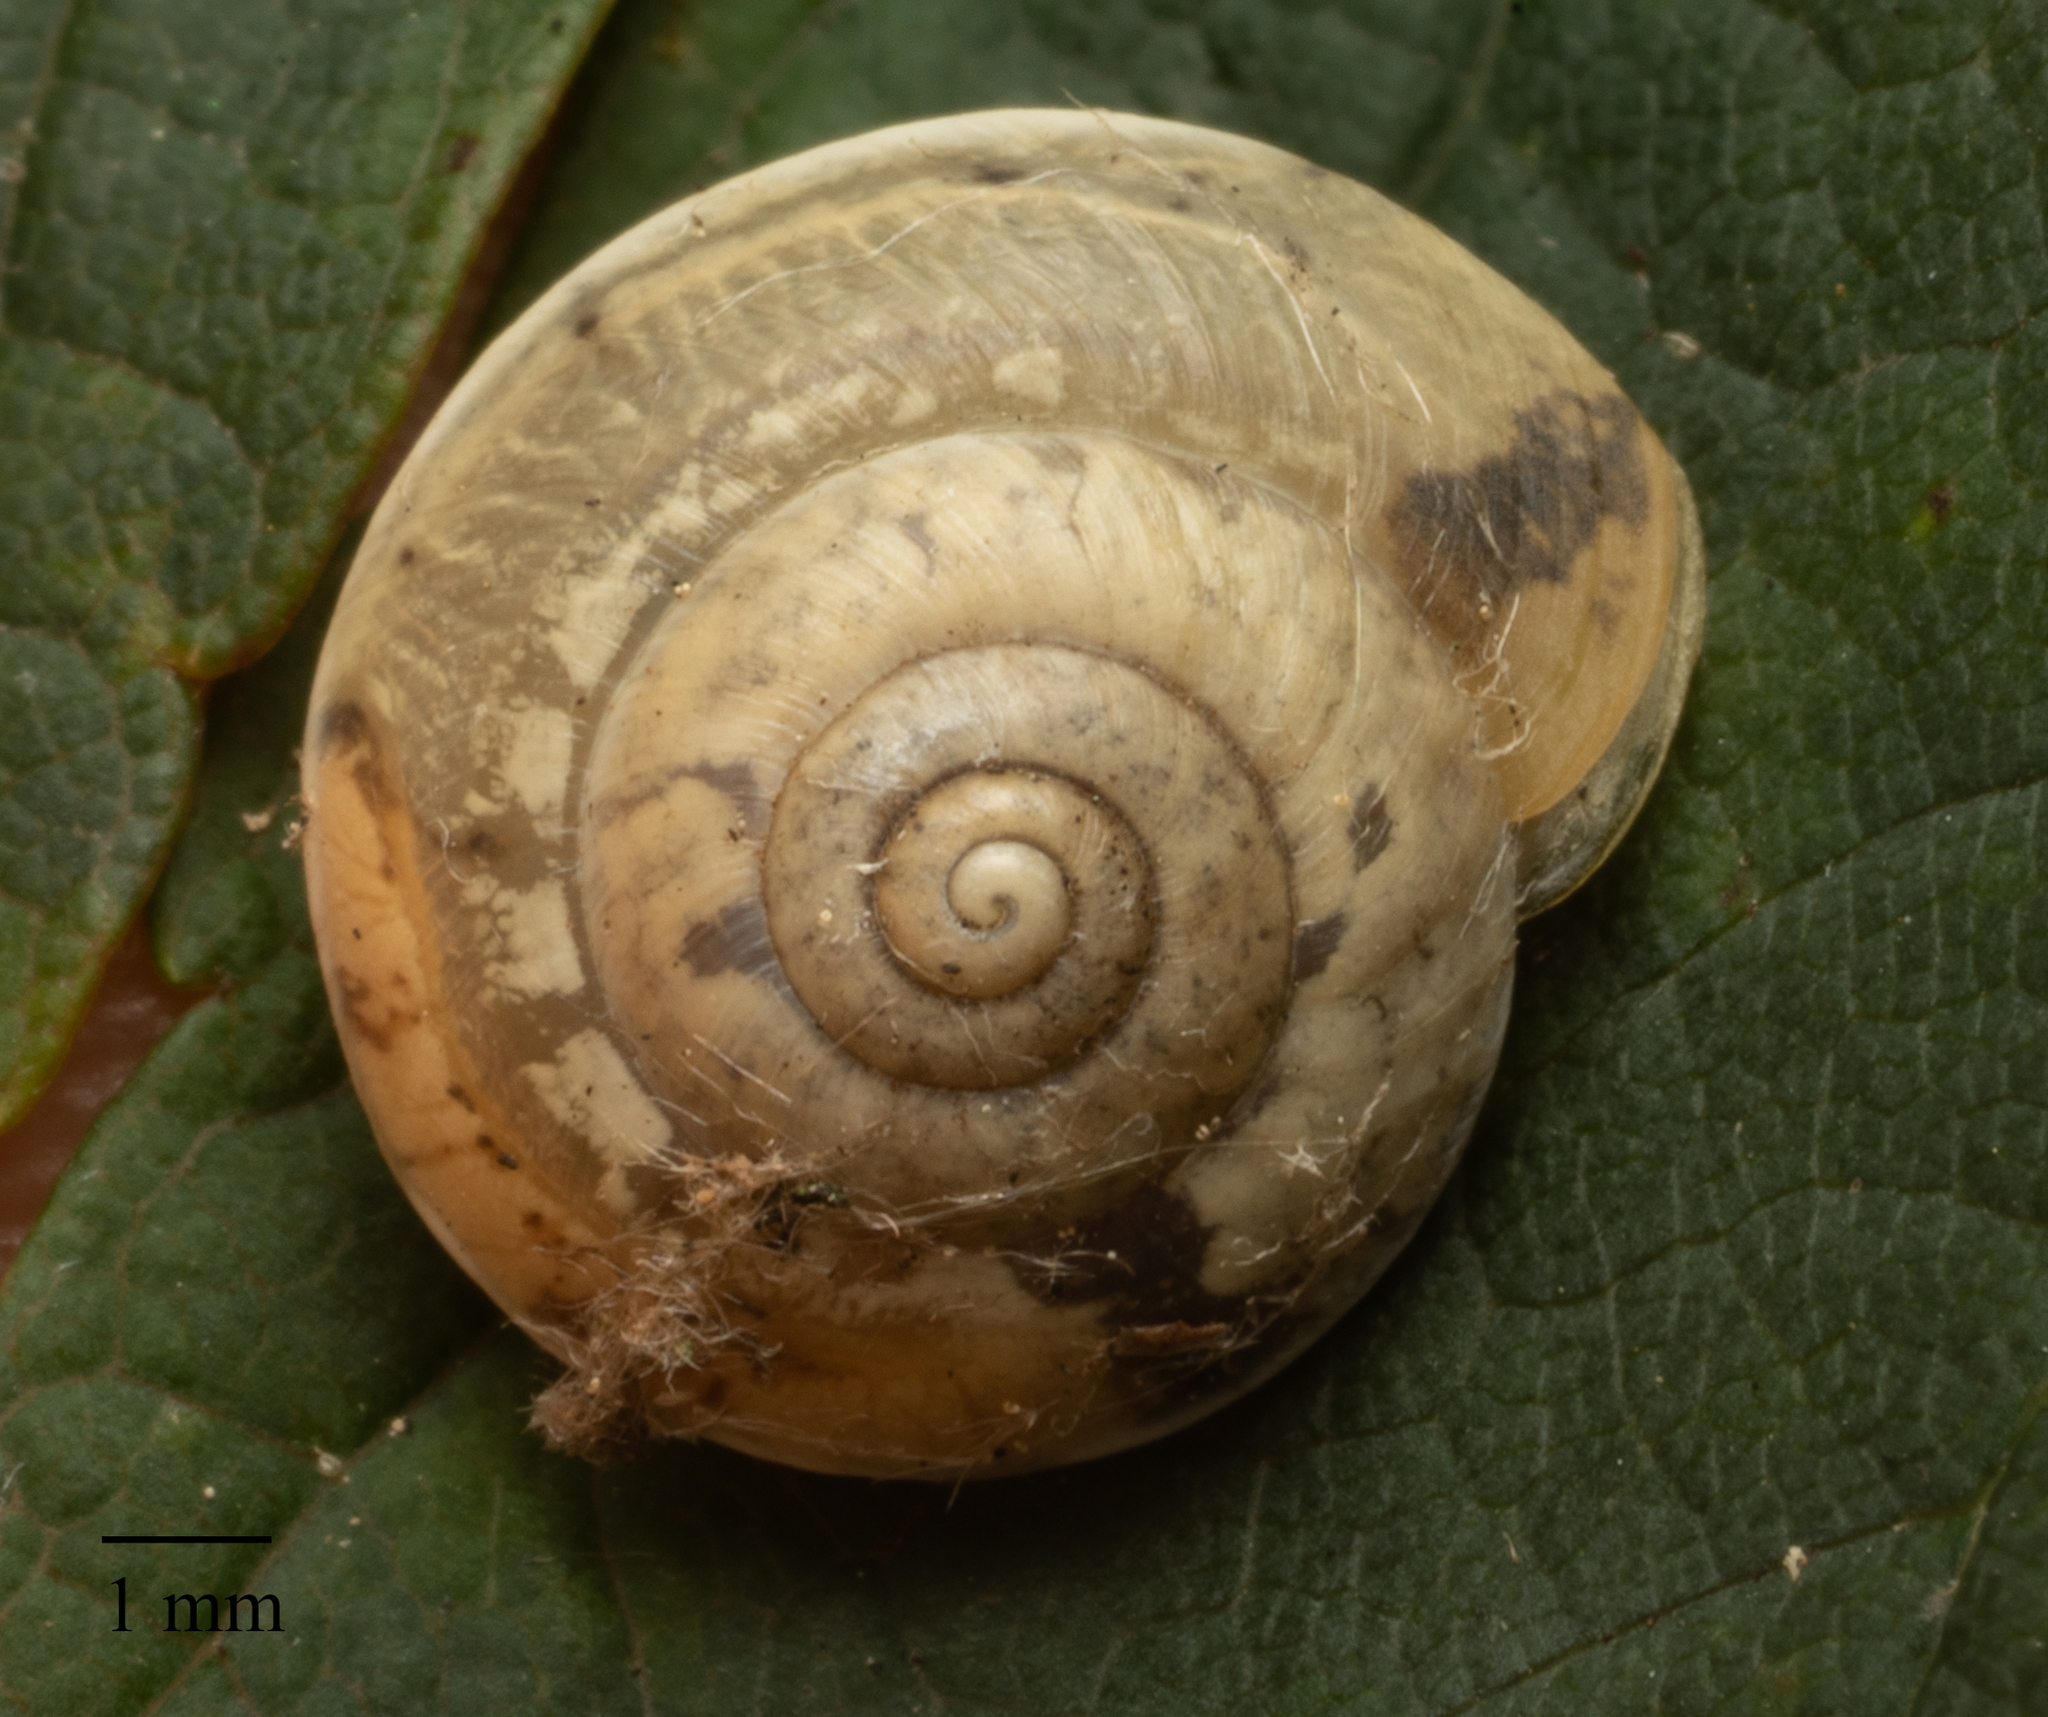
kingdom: Animalia
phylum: Mollusca
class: Gastropoda
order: Stylommatophora
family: Hygromiidae
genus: Hygromia
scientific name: Hygromia cinctella
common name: Girdled snail
